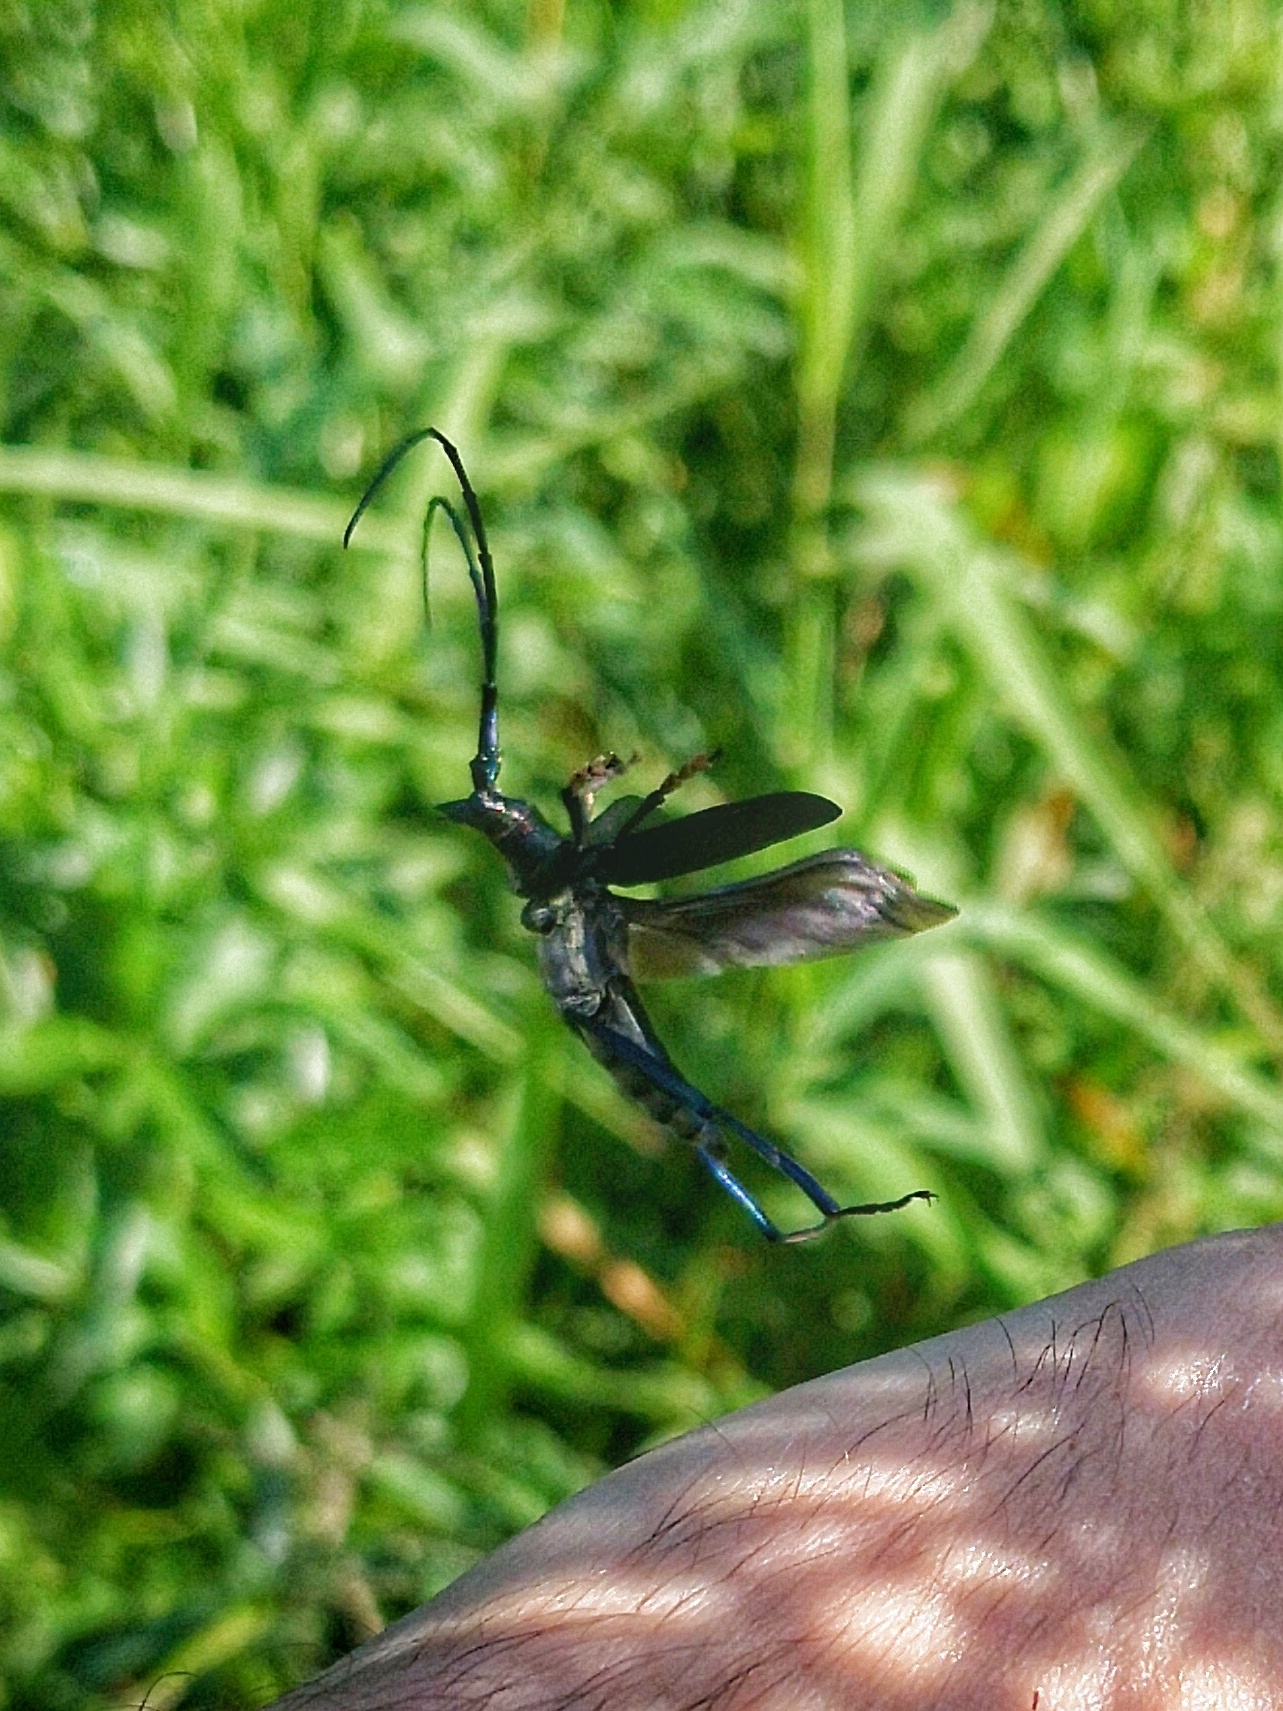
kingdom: Animalia
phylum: Arthropoda
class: Insecta
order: Coleoptera
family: Cerambycidae
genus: Aromia
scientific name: Aromia moschata
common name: Musk beetle
